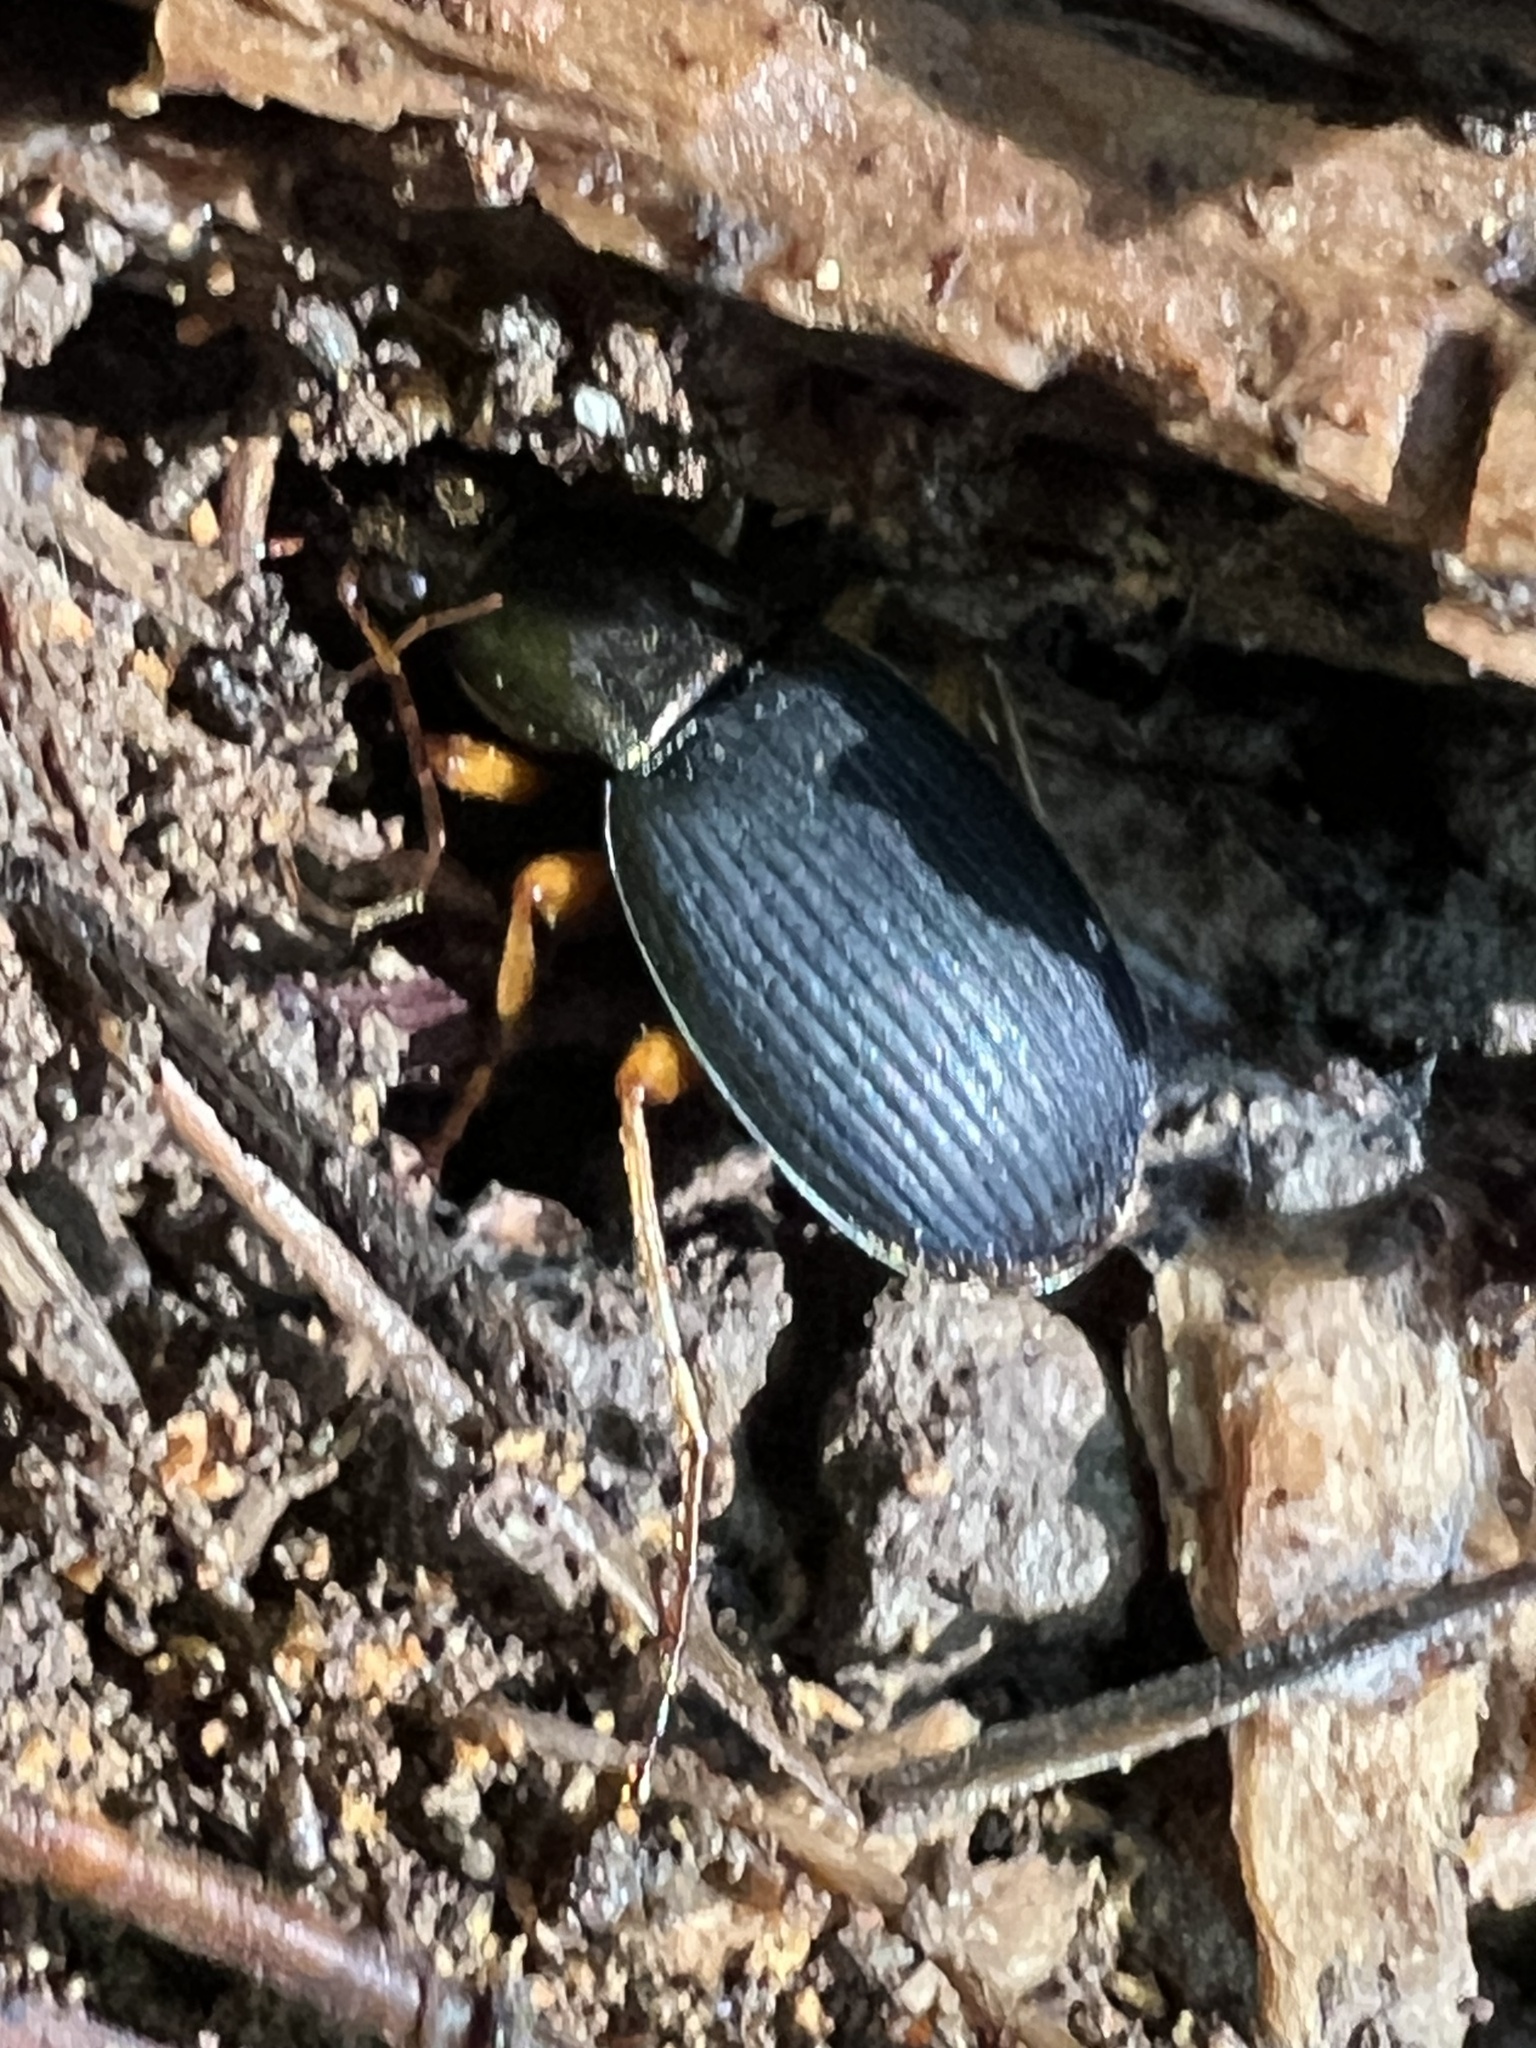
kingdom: Animalia
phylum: Arthropoda
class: Insecta
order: Coleoptera
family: Carabidae
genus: Chlaenius
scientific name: Chlaenius aestivus
